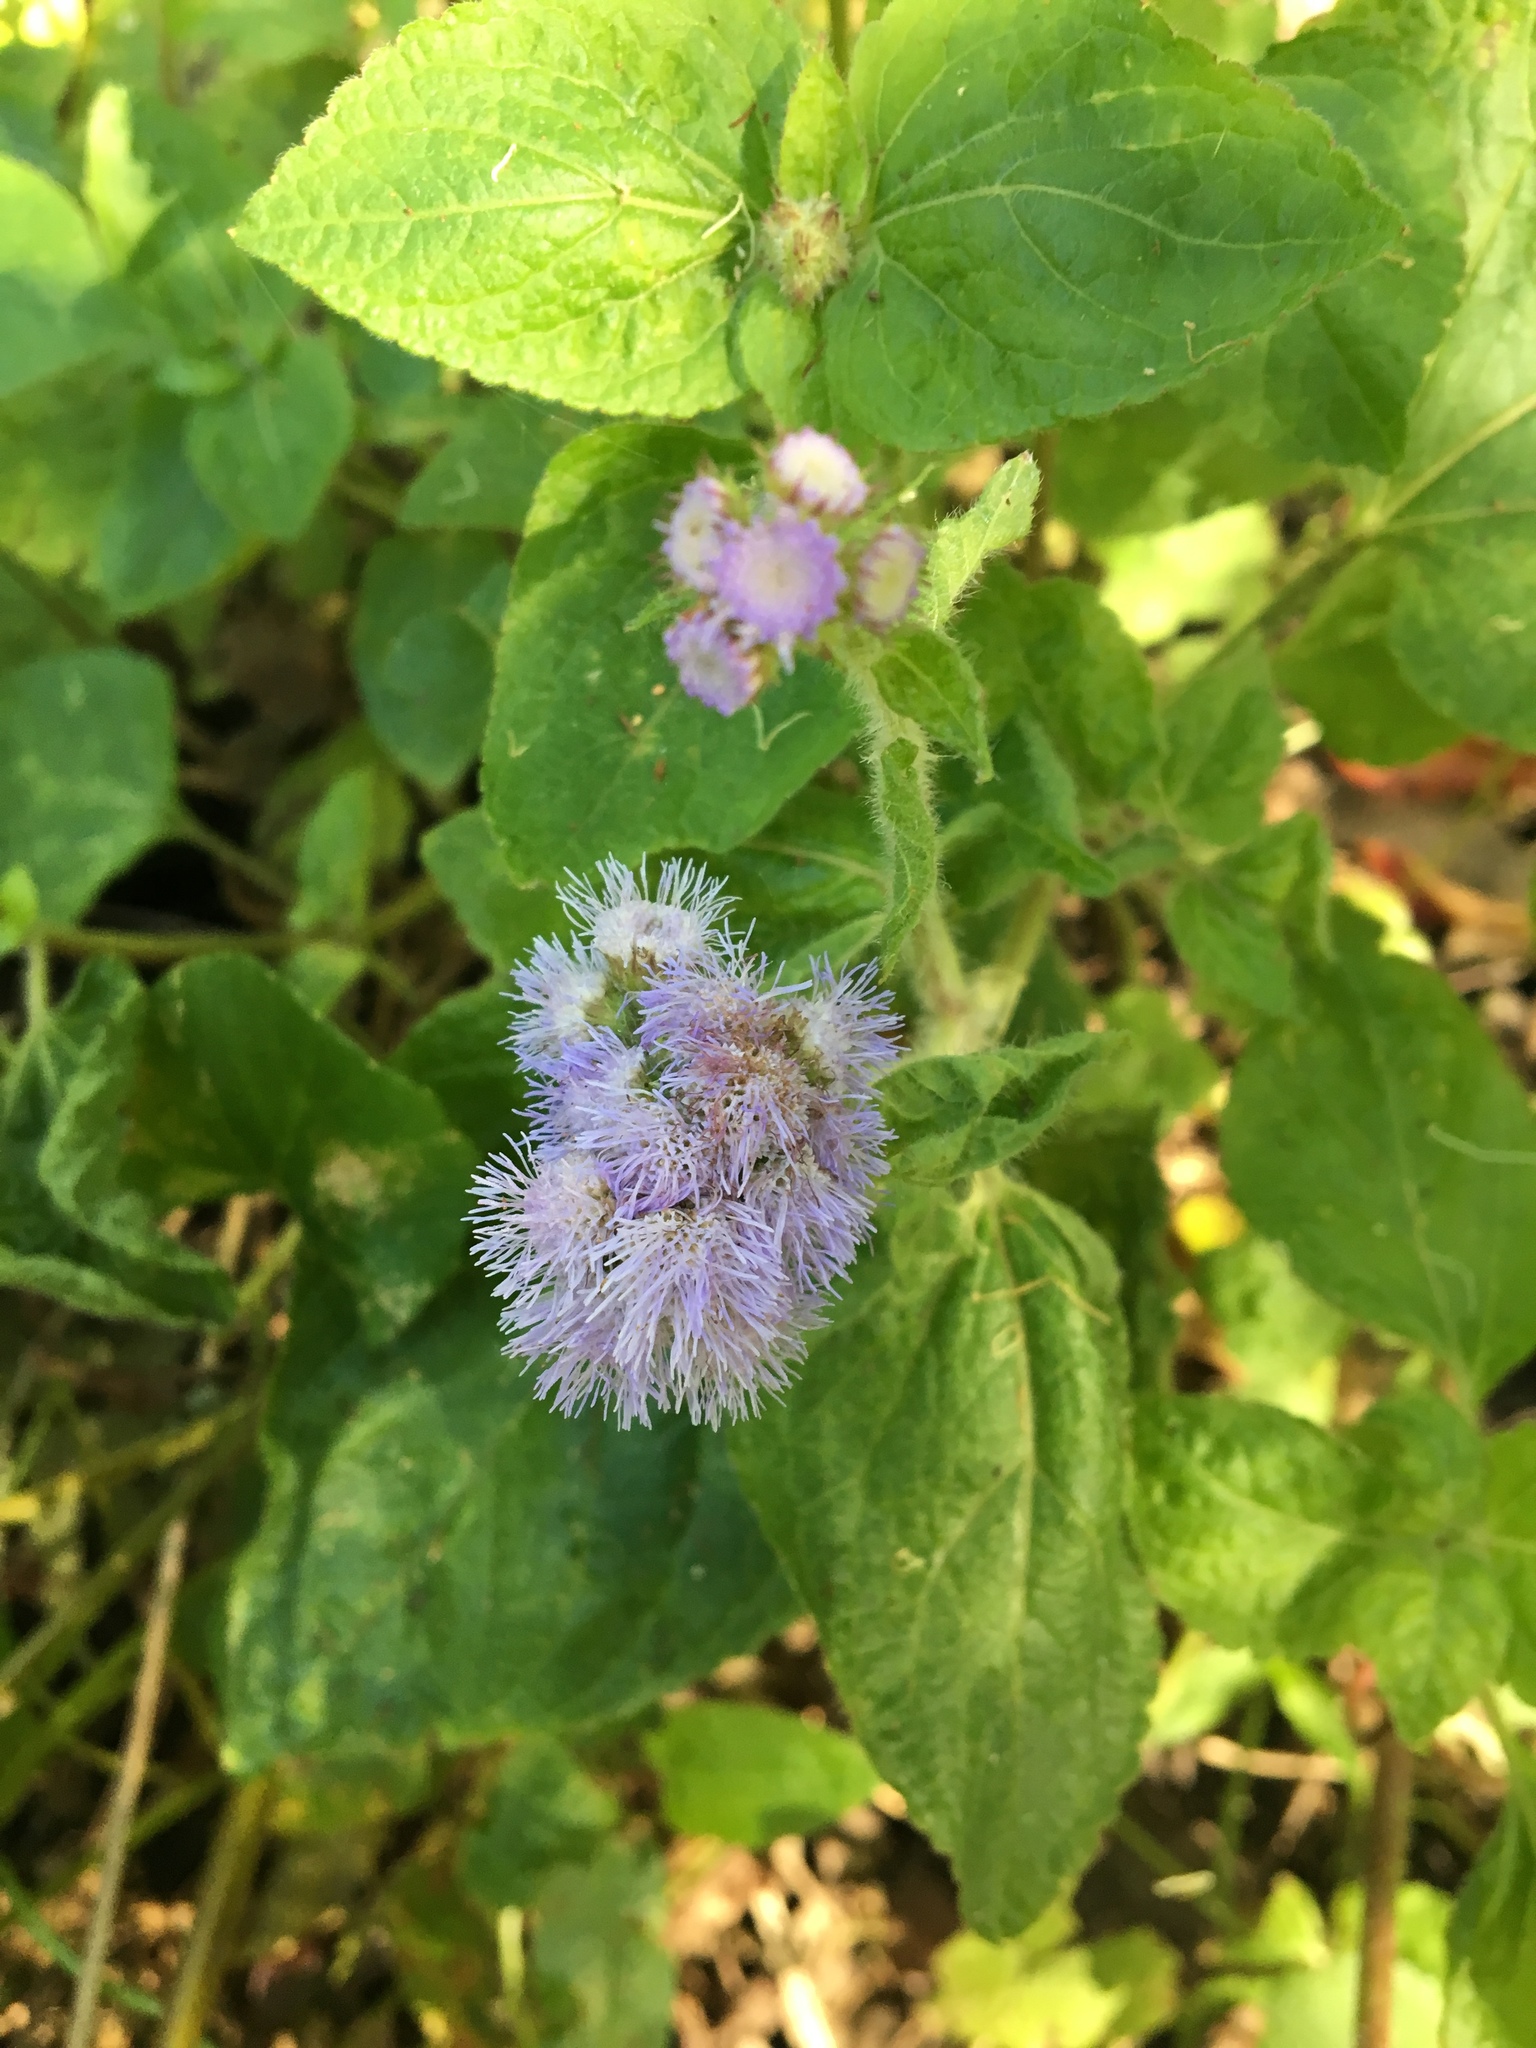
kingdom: Plantae
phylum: Tracheophyta
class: Magnoliopsida
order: Asterales
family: Asteraceae
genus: Ageratum
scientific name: Ageratum houstonianum
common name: Bluemink
